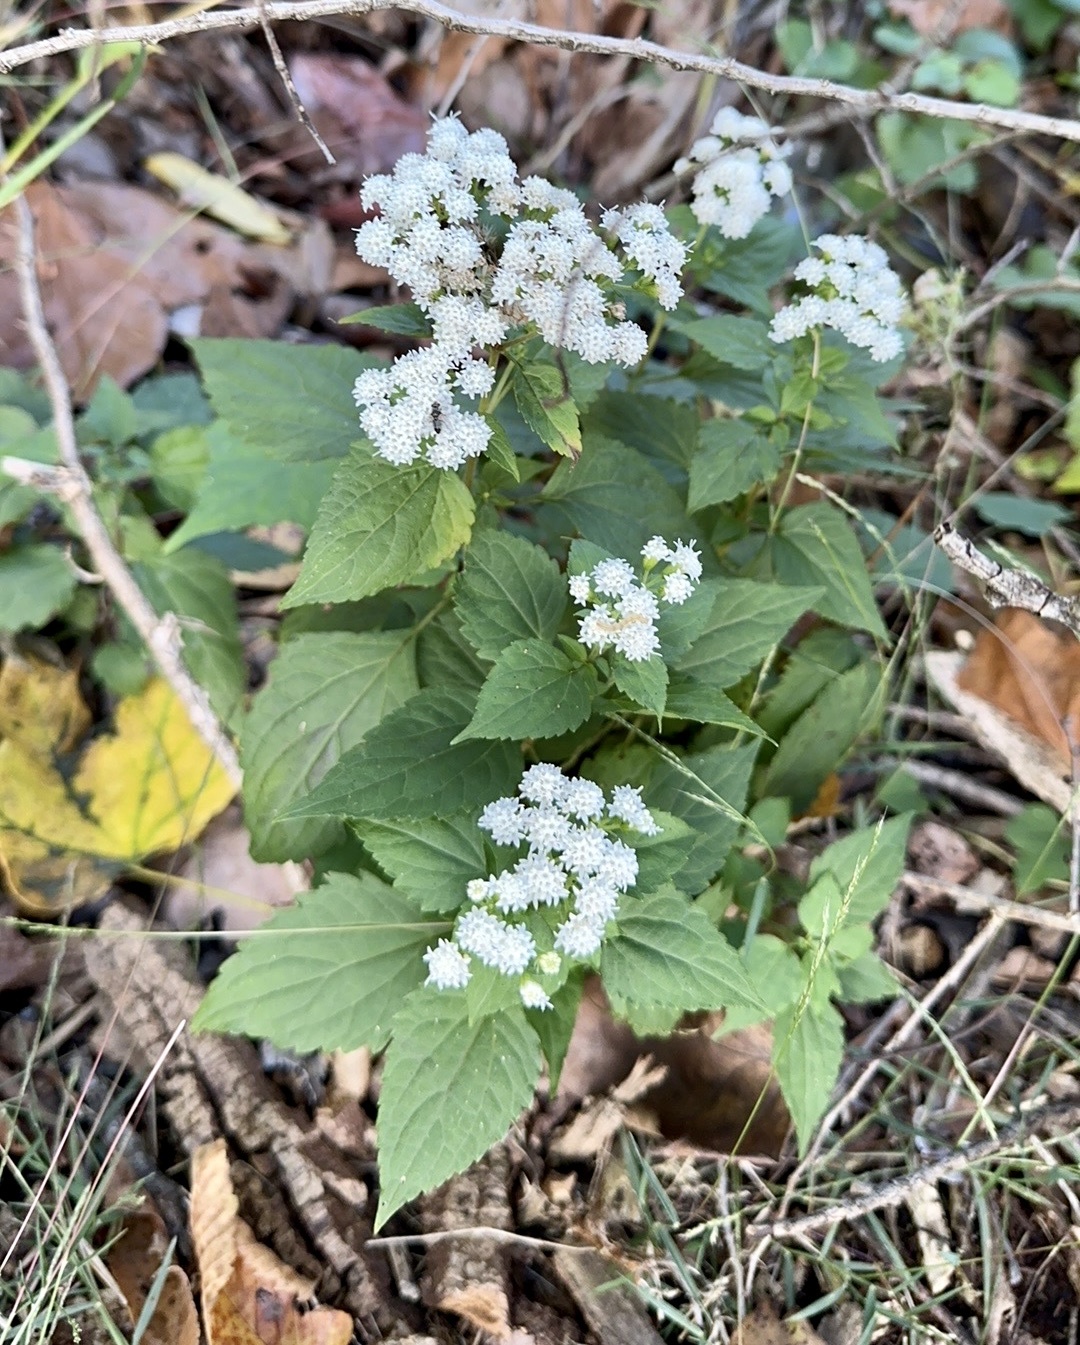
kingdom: Plantae
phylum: Tracheophyta
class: Magnoliopsida
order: Asterales
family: Asteraceae
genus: Ageratina
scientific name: Ageratina altissima
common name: White snakeroot
